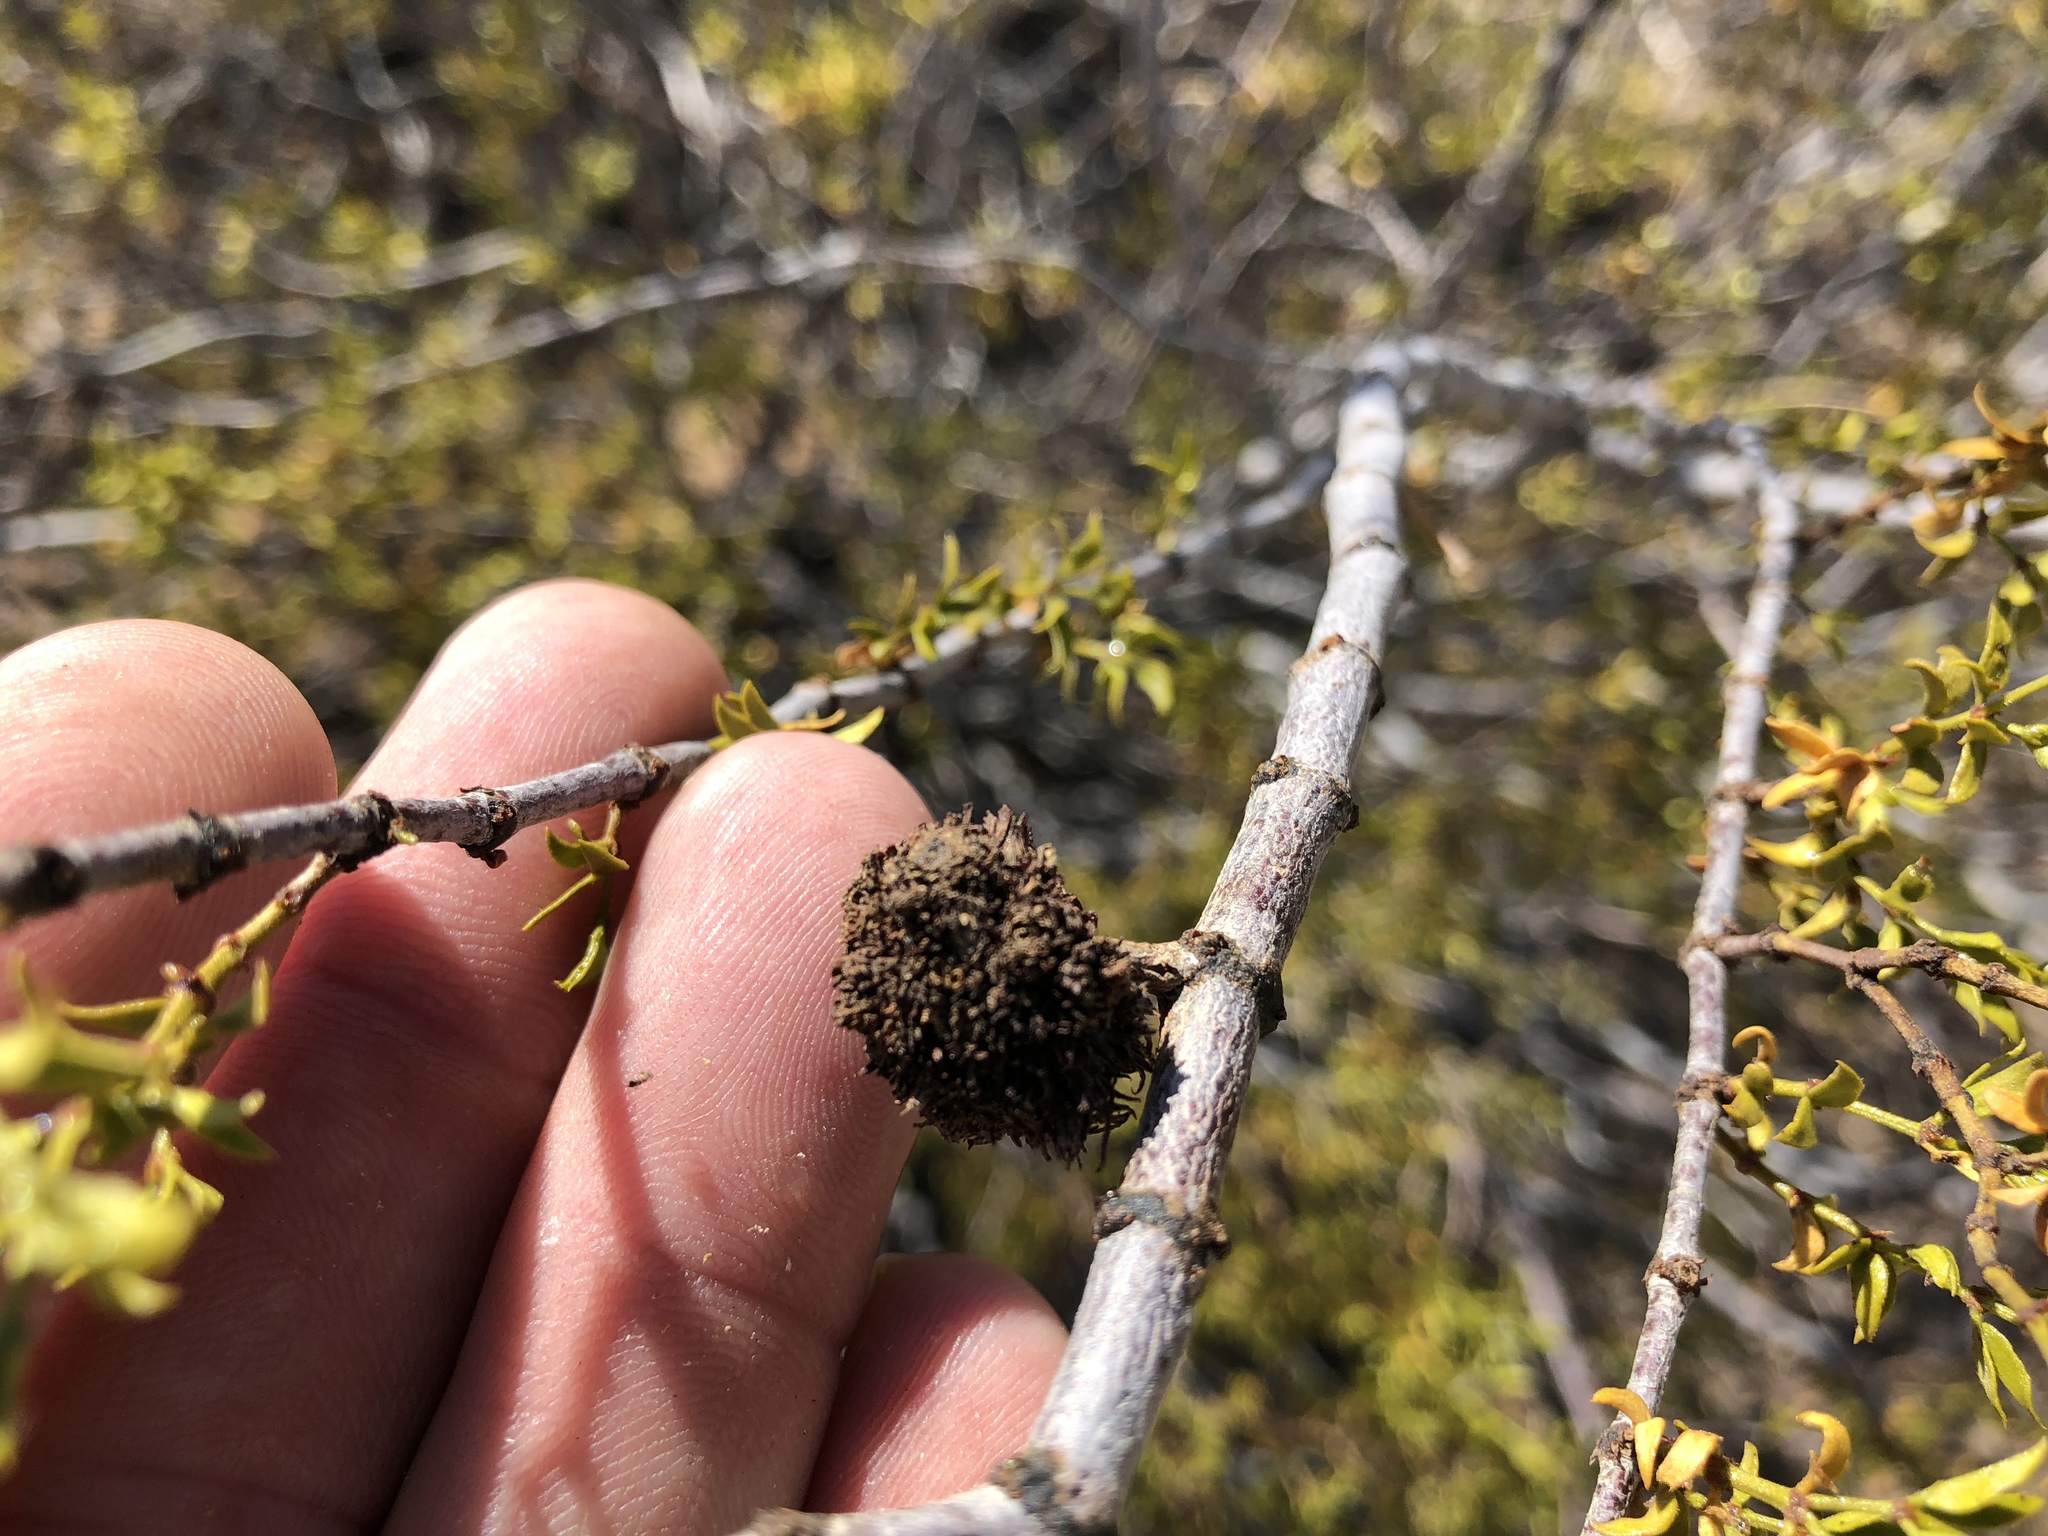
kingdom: Animalia
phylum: Arthropoda
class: Insecta
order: Diptera
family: Cecidomyiidae
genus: Asphondylia
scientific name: Asphondylia auripila
